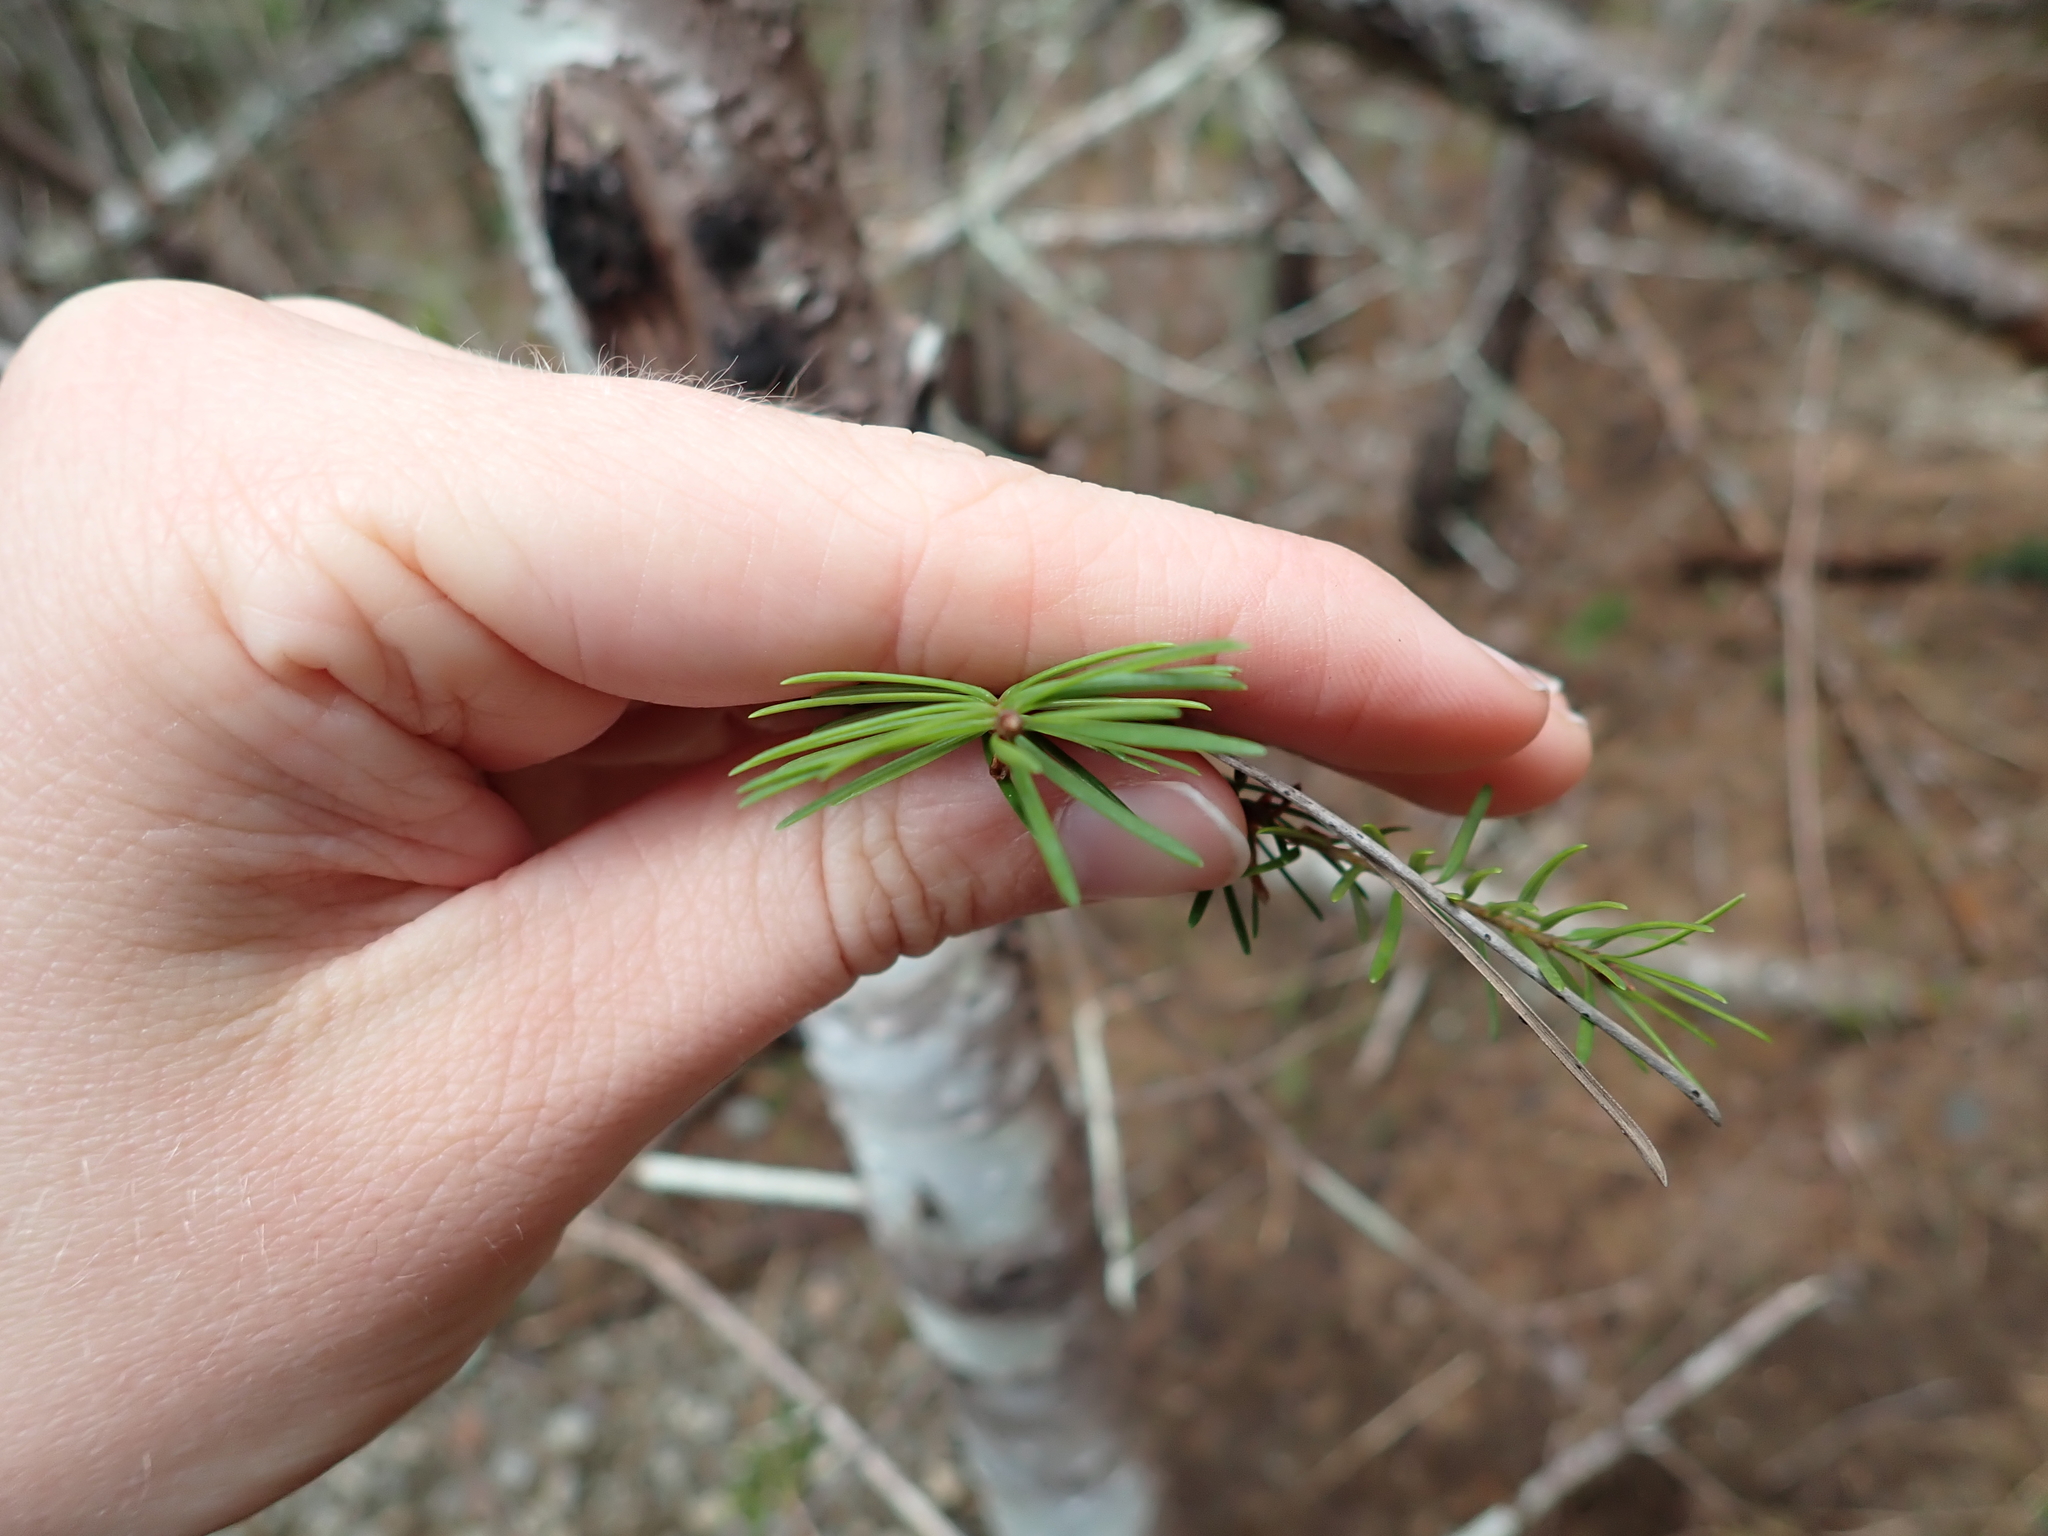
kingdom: Plantae
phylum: Tracheophyta
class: Pinopsida
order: Pinales
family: Pinaceae
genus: Abies
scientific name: Abies grandis
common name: Giant fir
